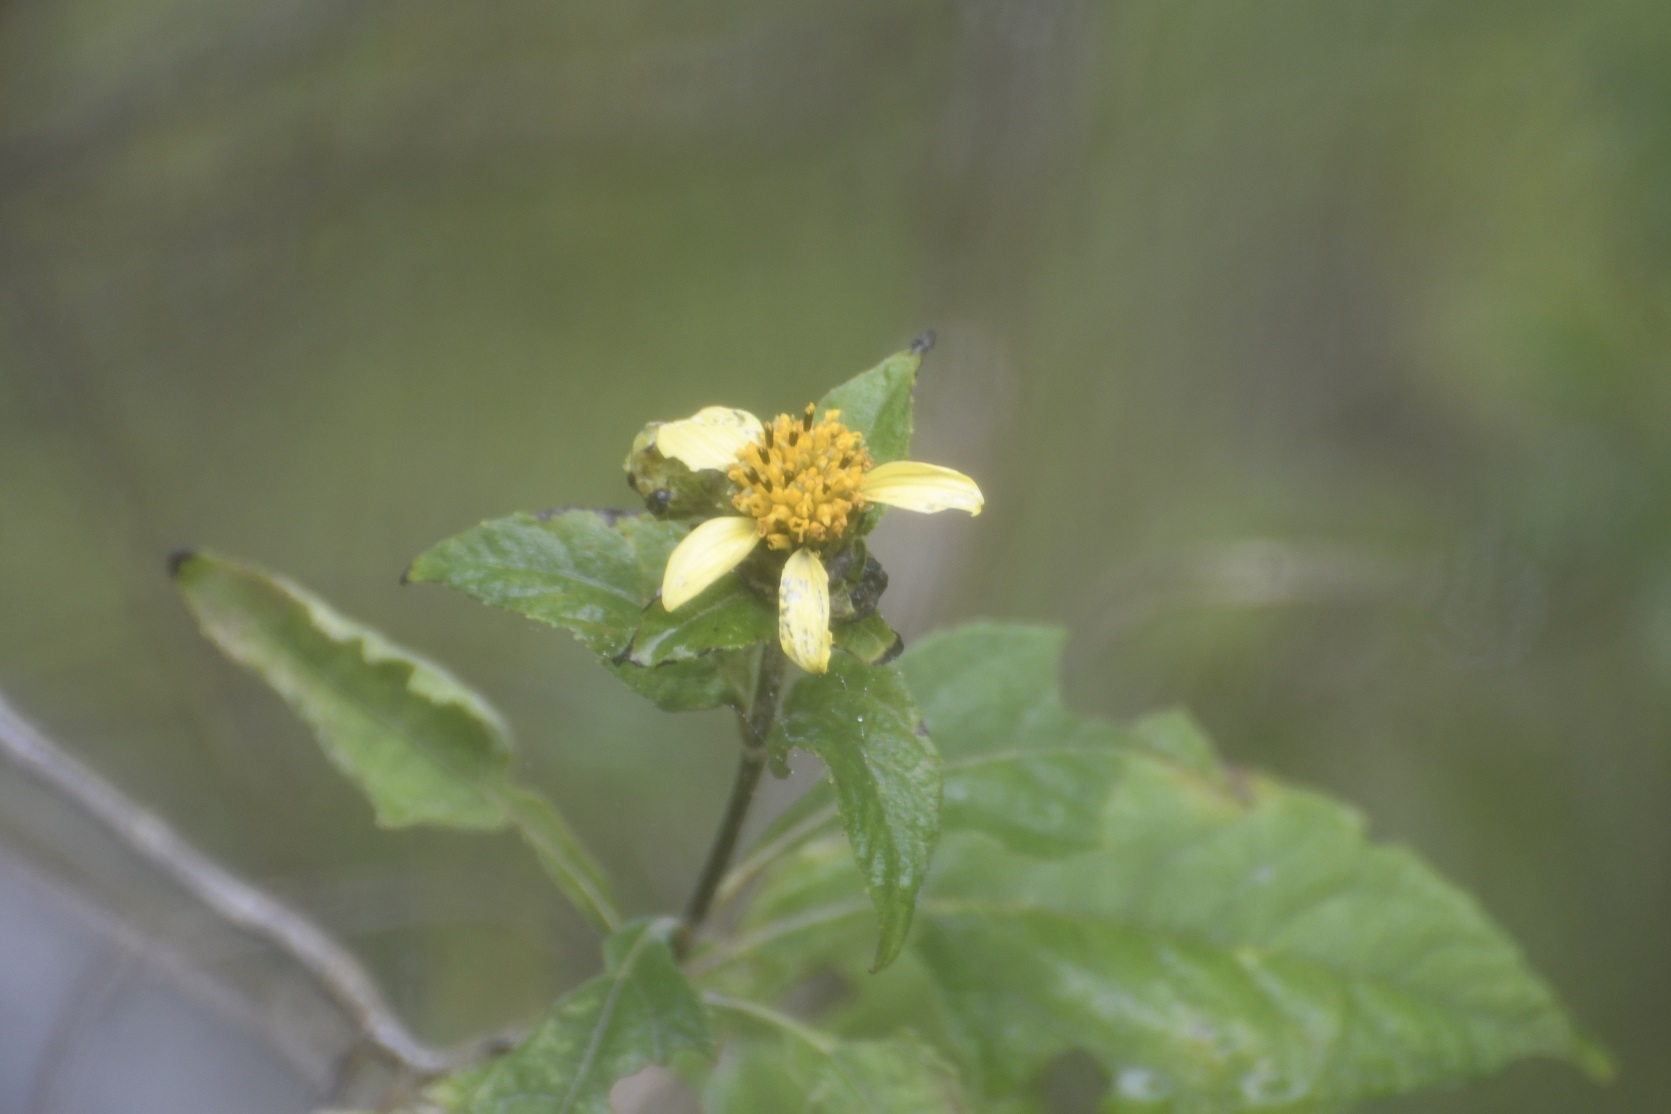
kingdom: Plantae
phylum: Tracheophyta
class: Magnoliopsida
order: Asterales
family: Asteraceae
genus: Verbesina
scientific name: Verbesina strotheri
